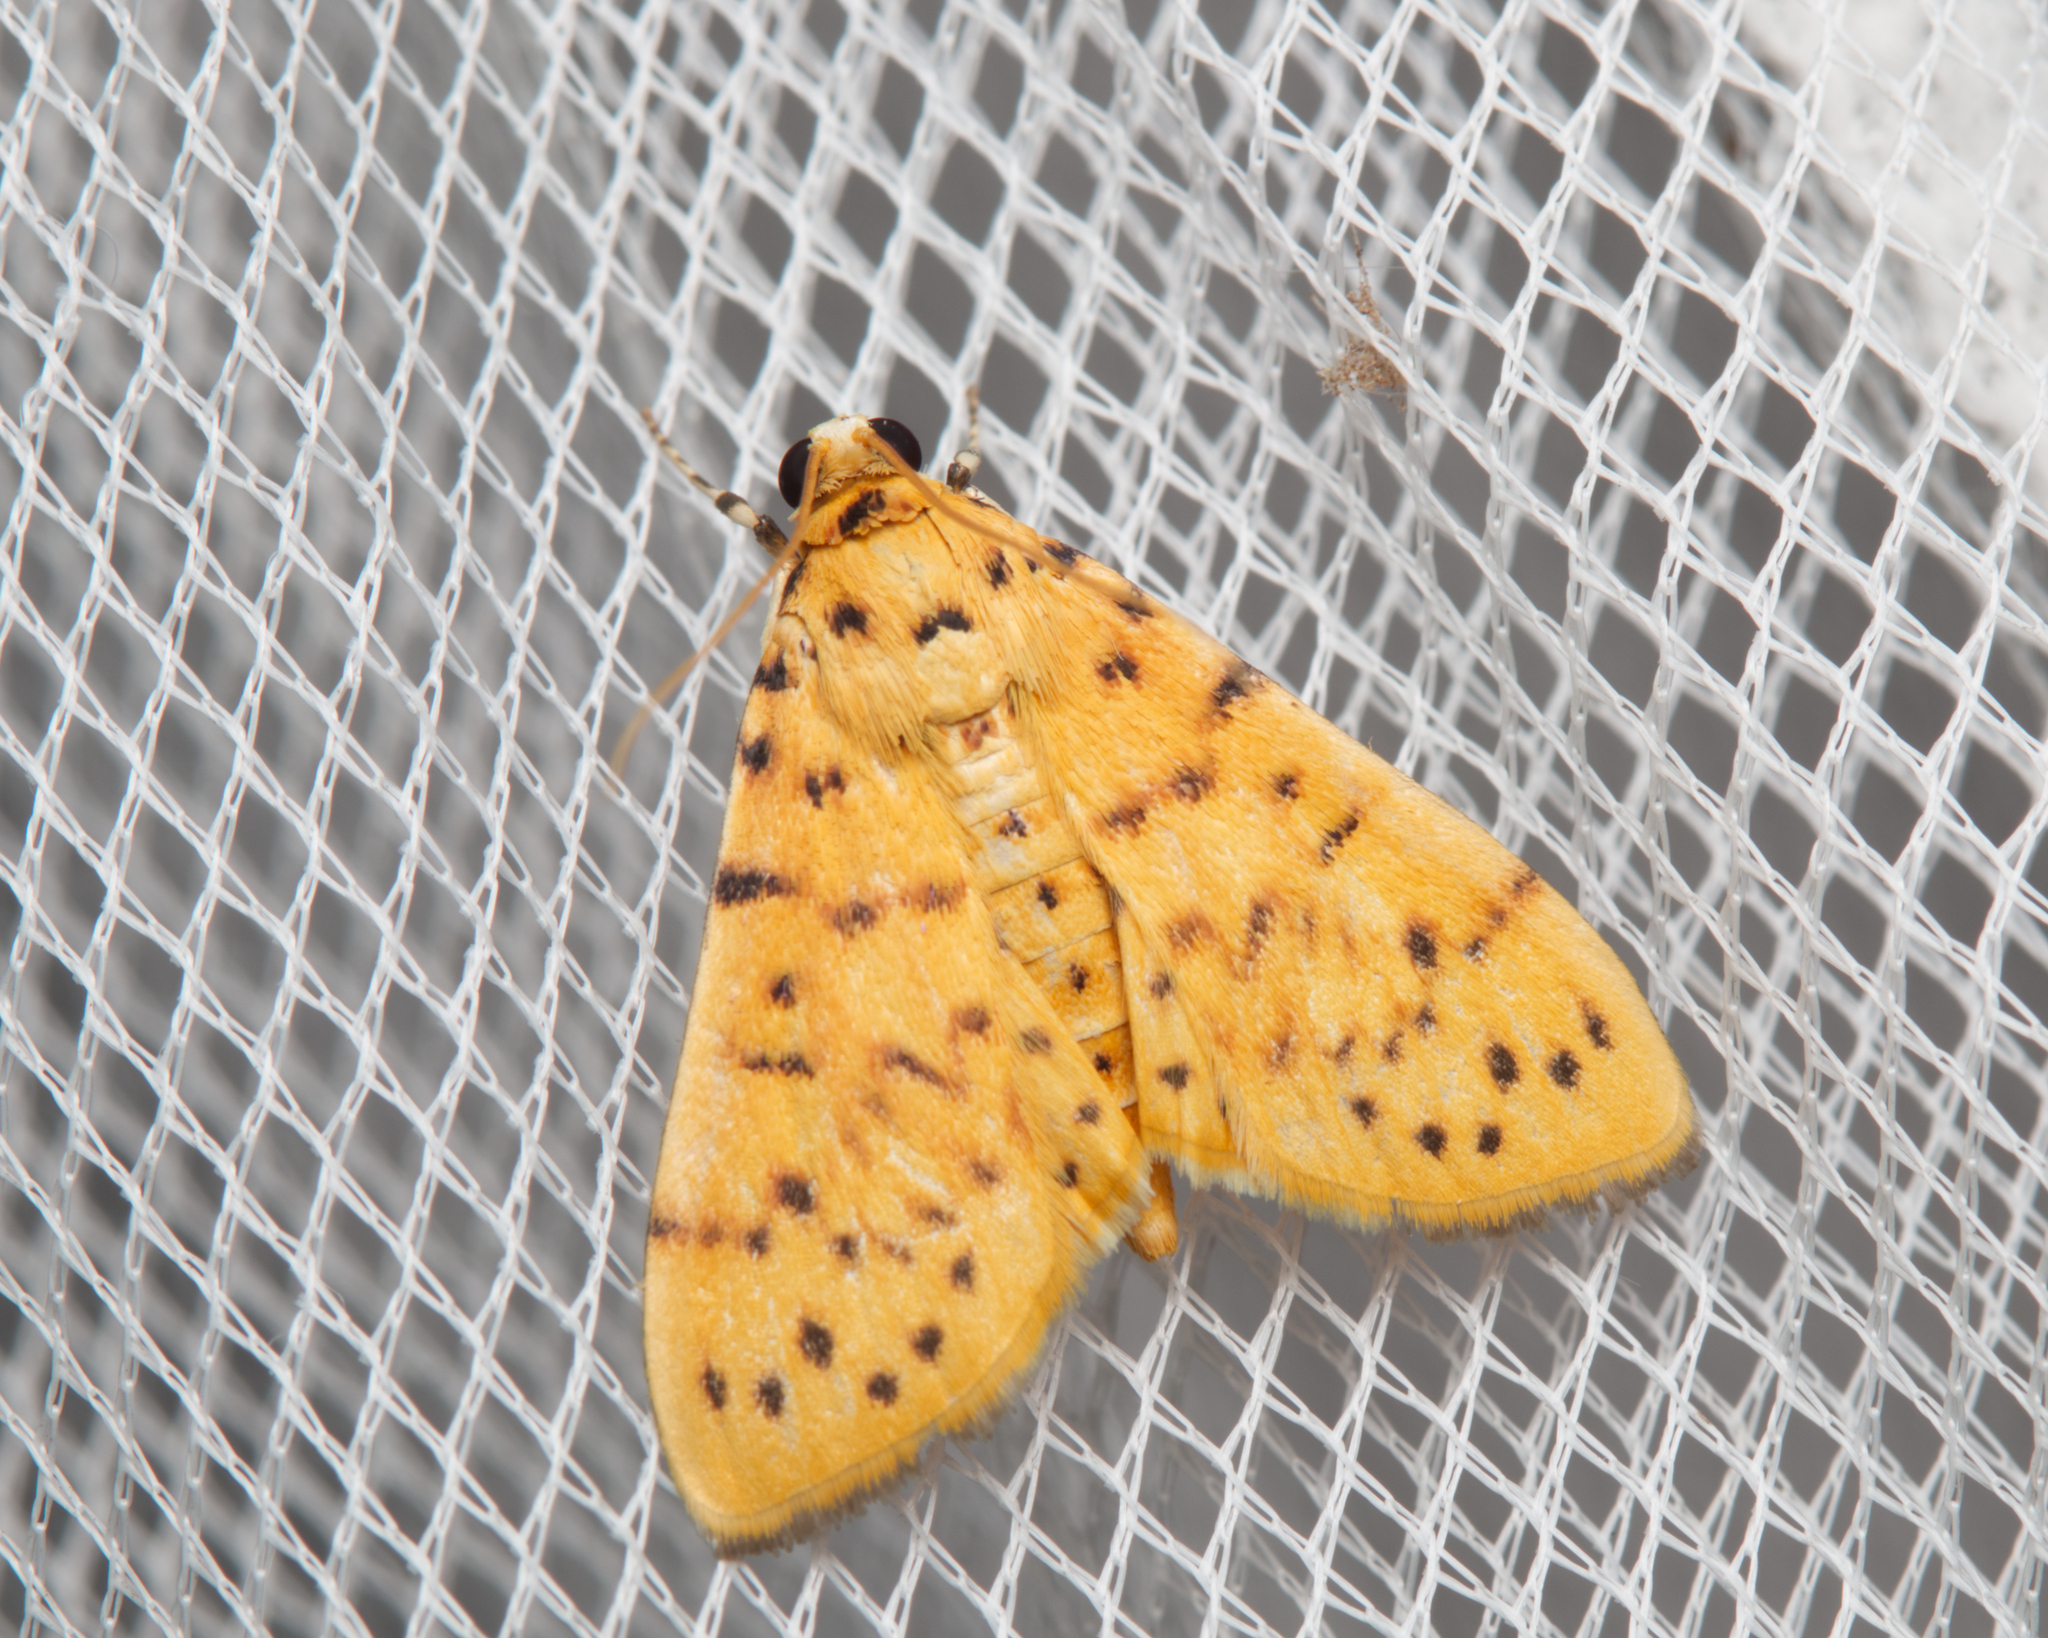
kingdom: Animalia
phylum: Arthropoda
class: Insecta
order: Lepidoptera
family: Crambidae
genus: Conogethes
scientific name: Conogethes pluto
